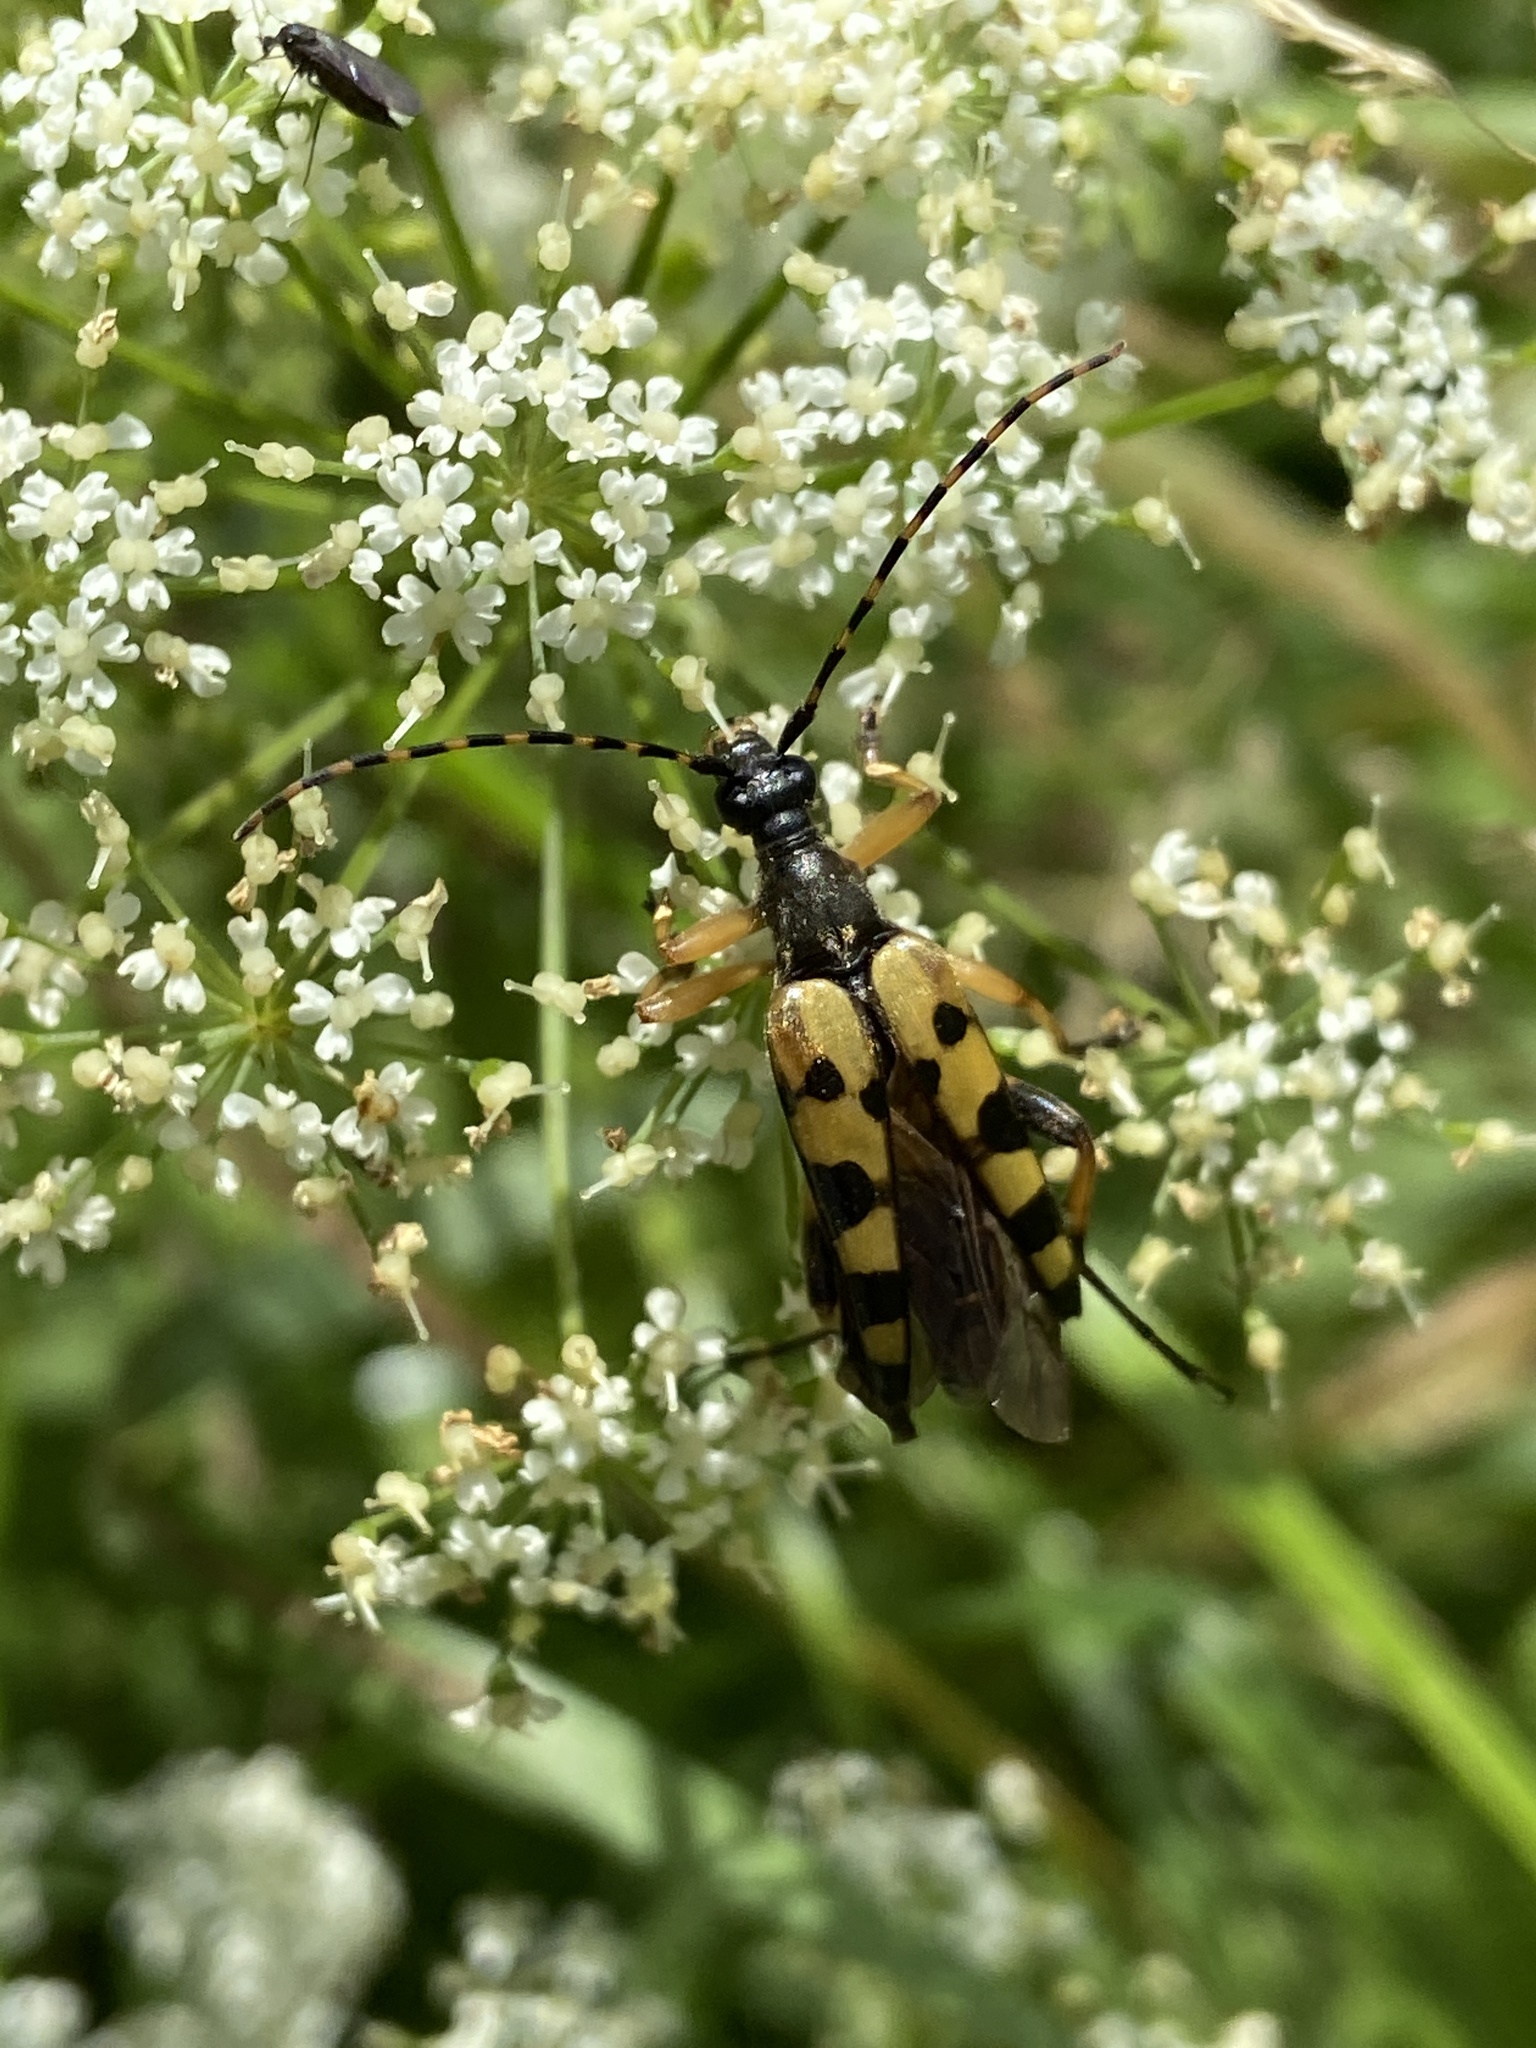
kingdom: Animalia
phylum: Arthropoda
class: Insecta
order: Coleoptera
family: Cerambycidae
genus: Rutpela
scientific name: Rutpela maculata
